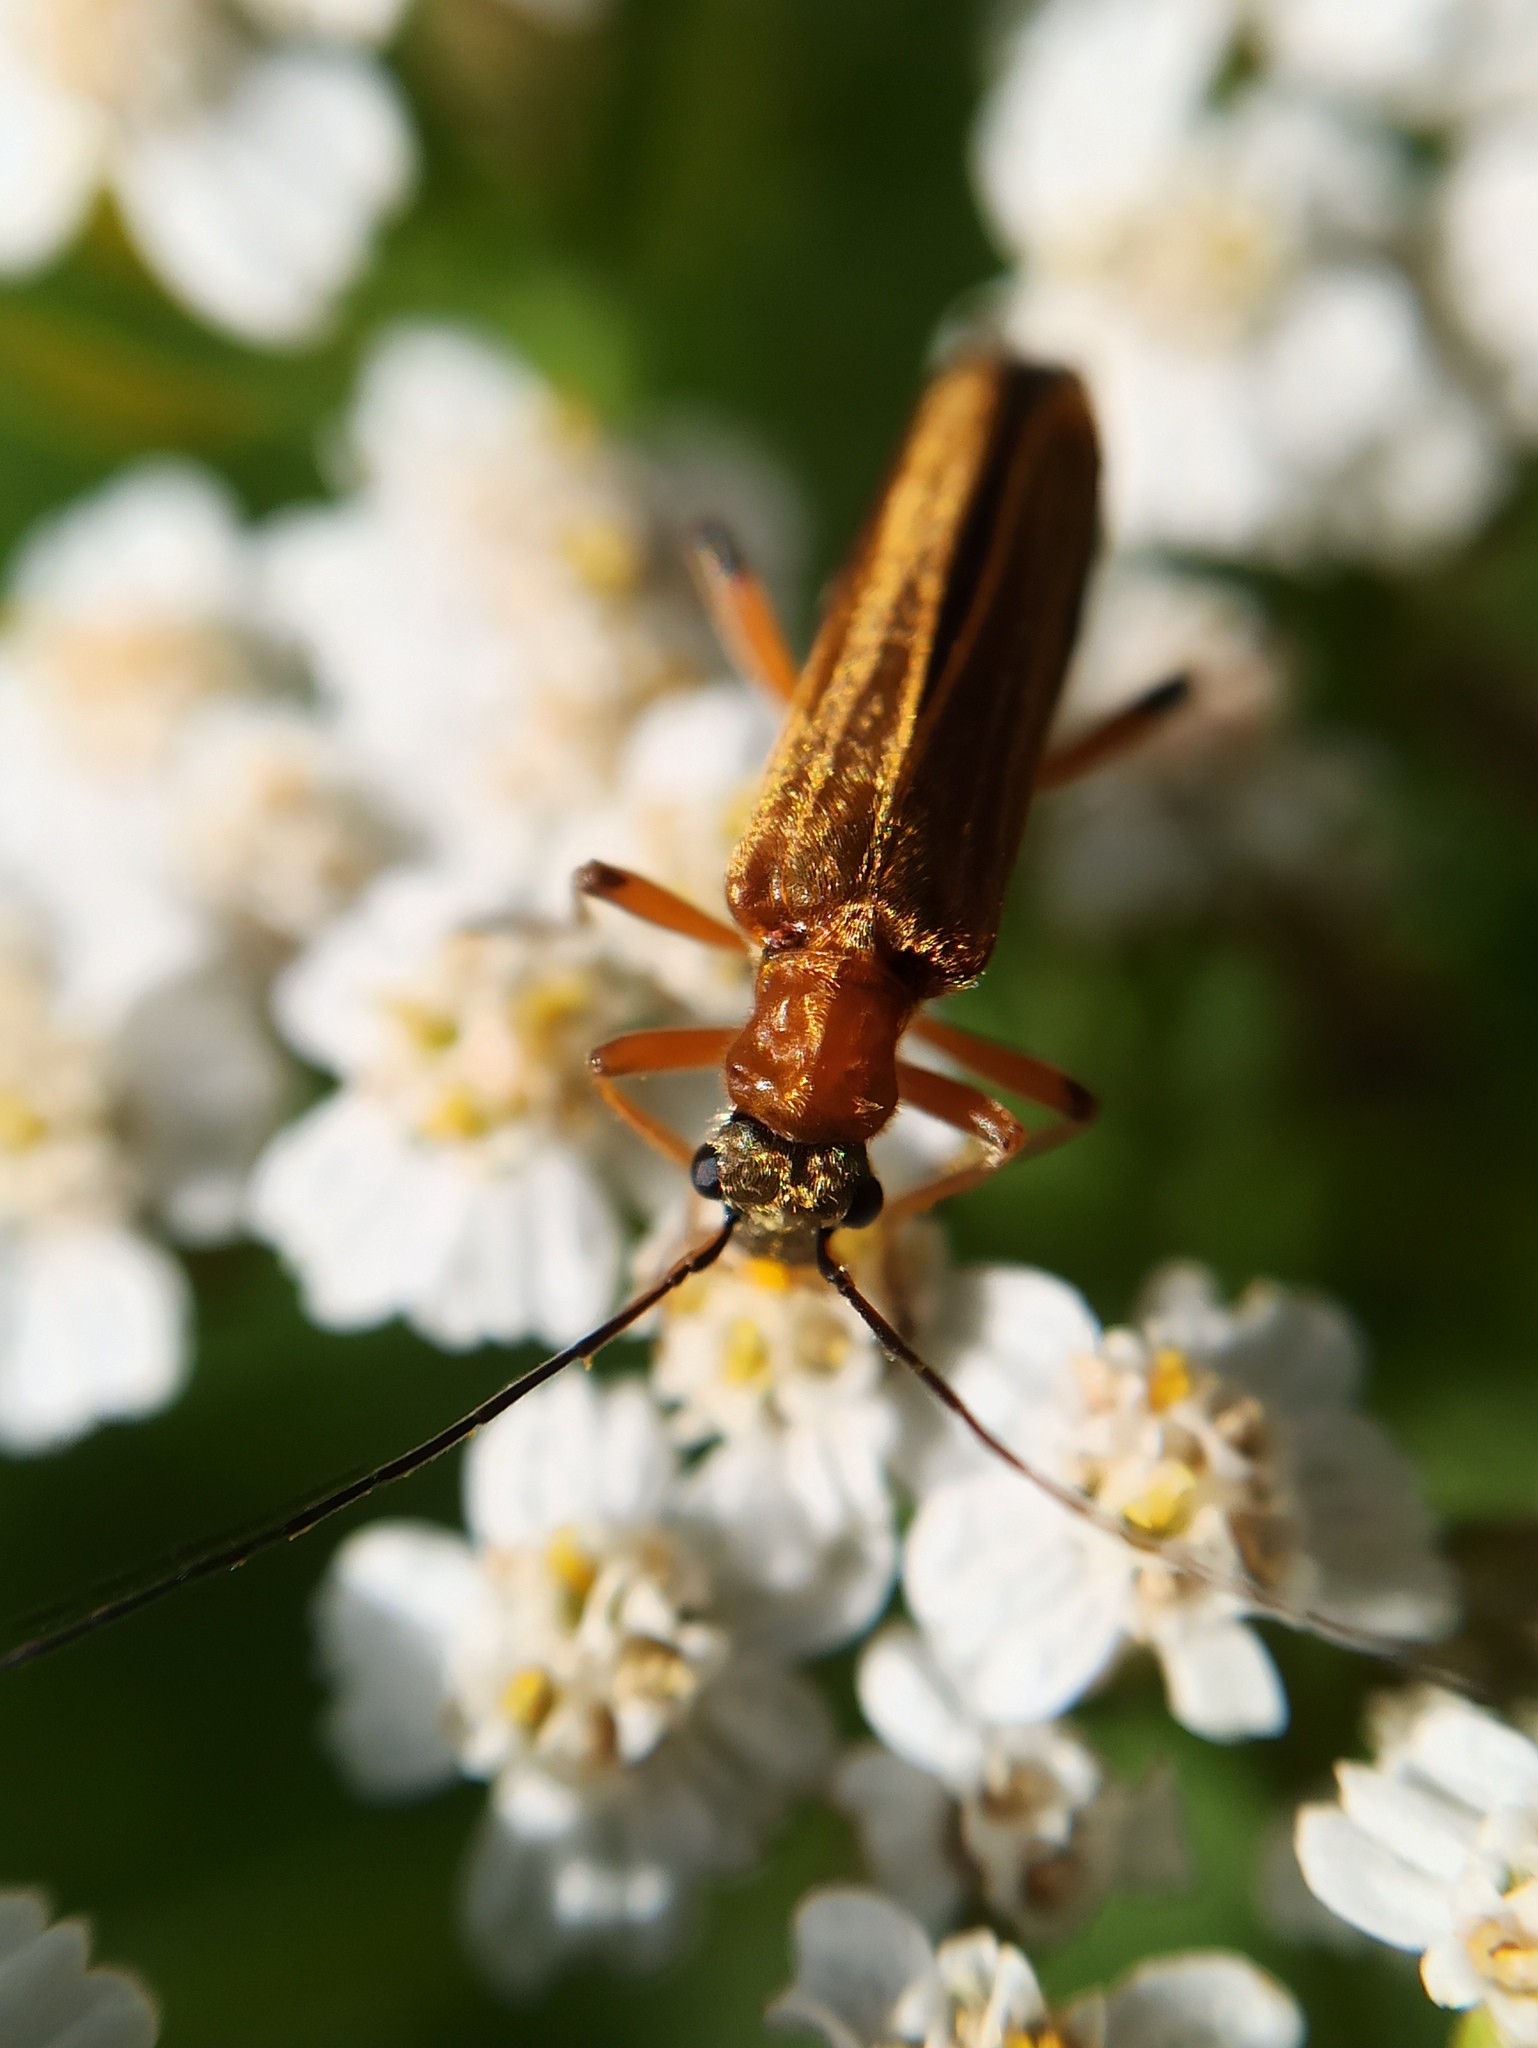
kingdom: Animalia
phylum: Arthropoda
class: Insecta
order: Coleoptera
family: Oedemeridae
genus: Oedemera
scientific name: Oedemera podagrariae
